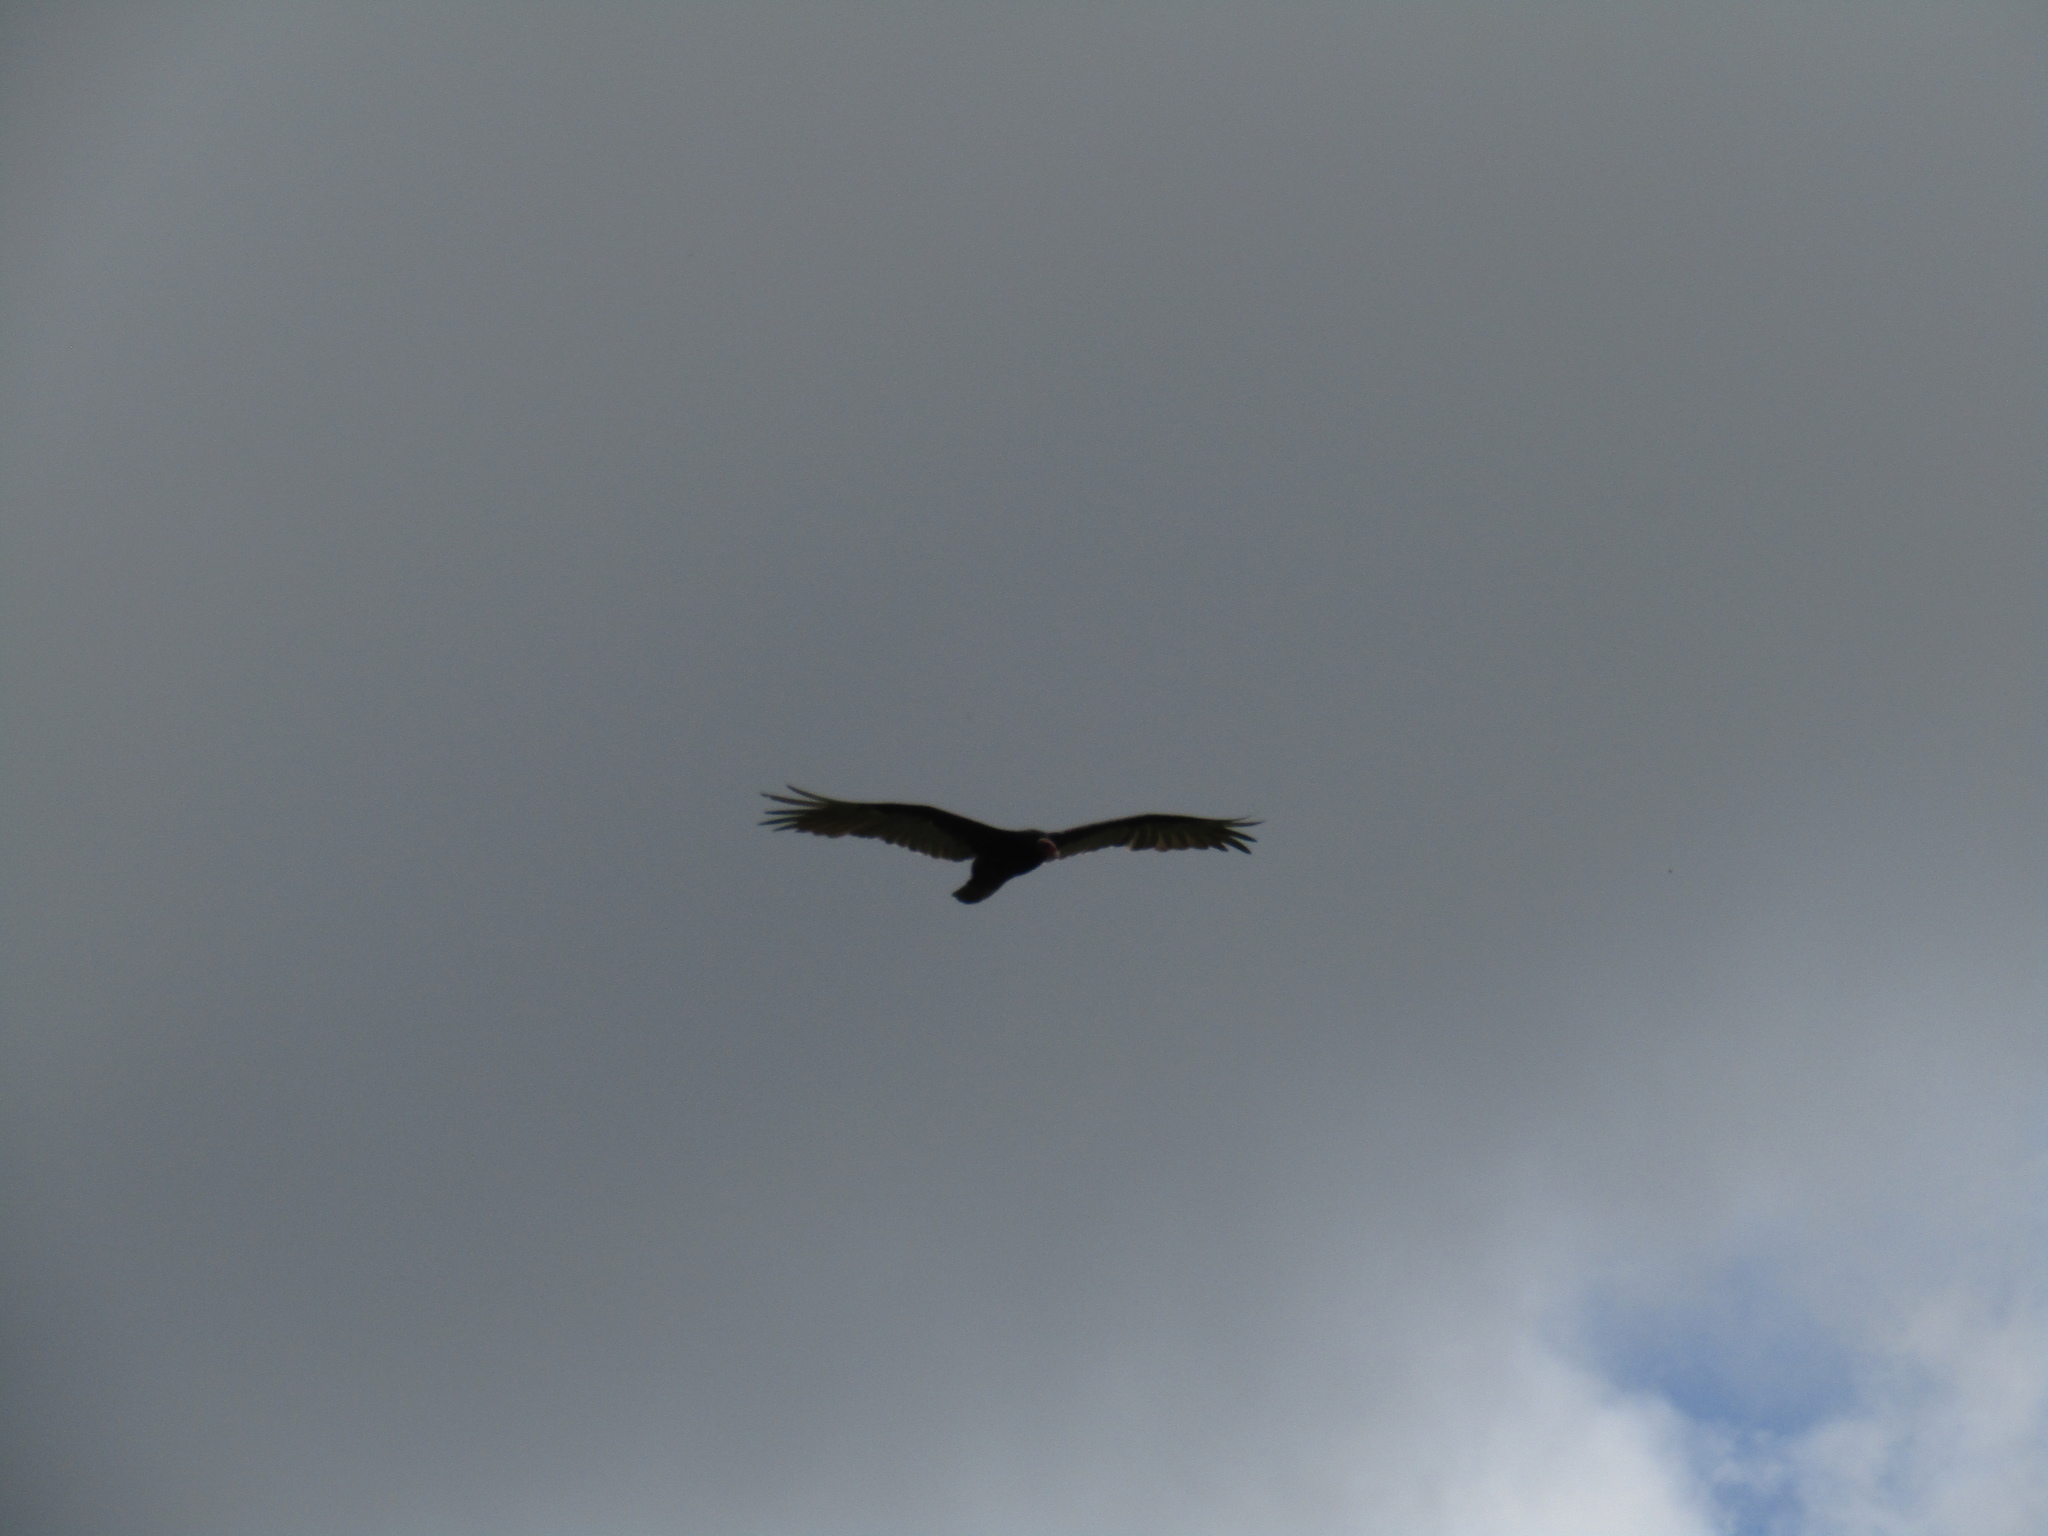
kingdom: Animalia
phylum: Chordata
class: Aves
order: Accipitriformes
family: Cathartidae
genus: Cathartes
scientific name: Cathartes aura
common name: Turkey vulture
